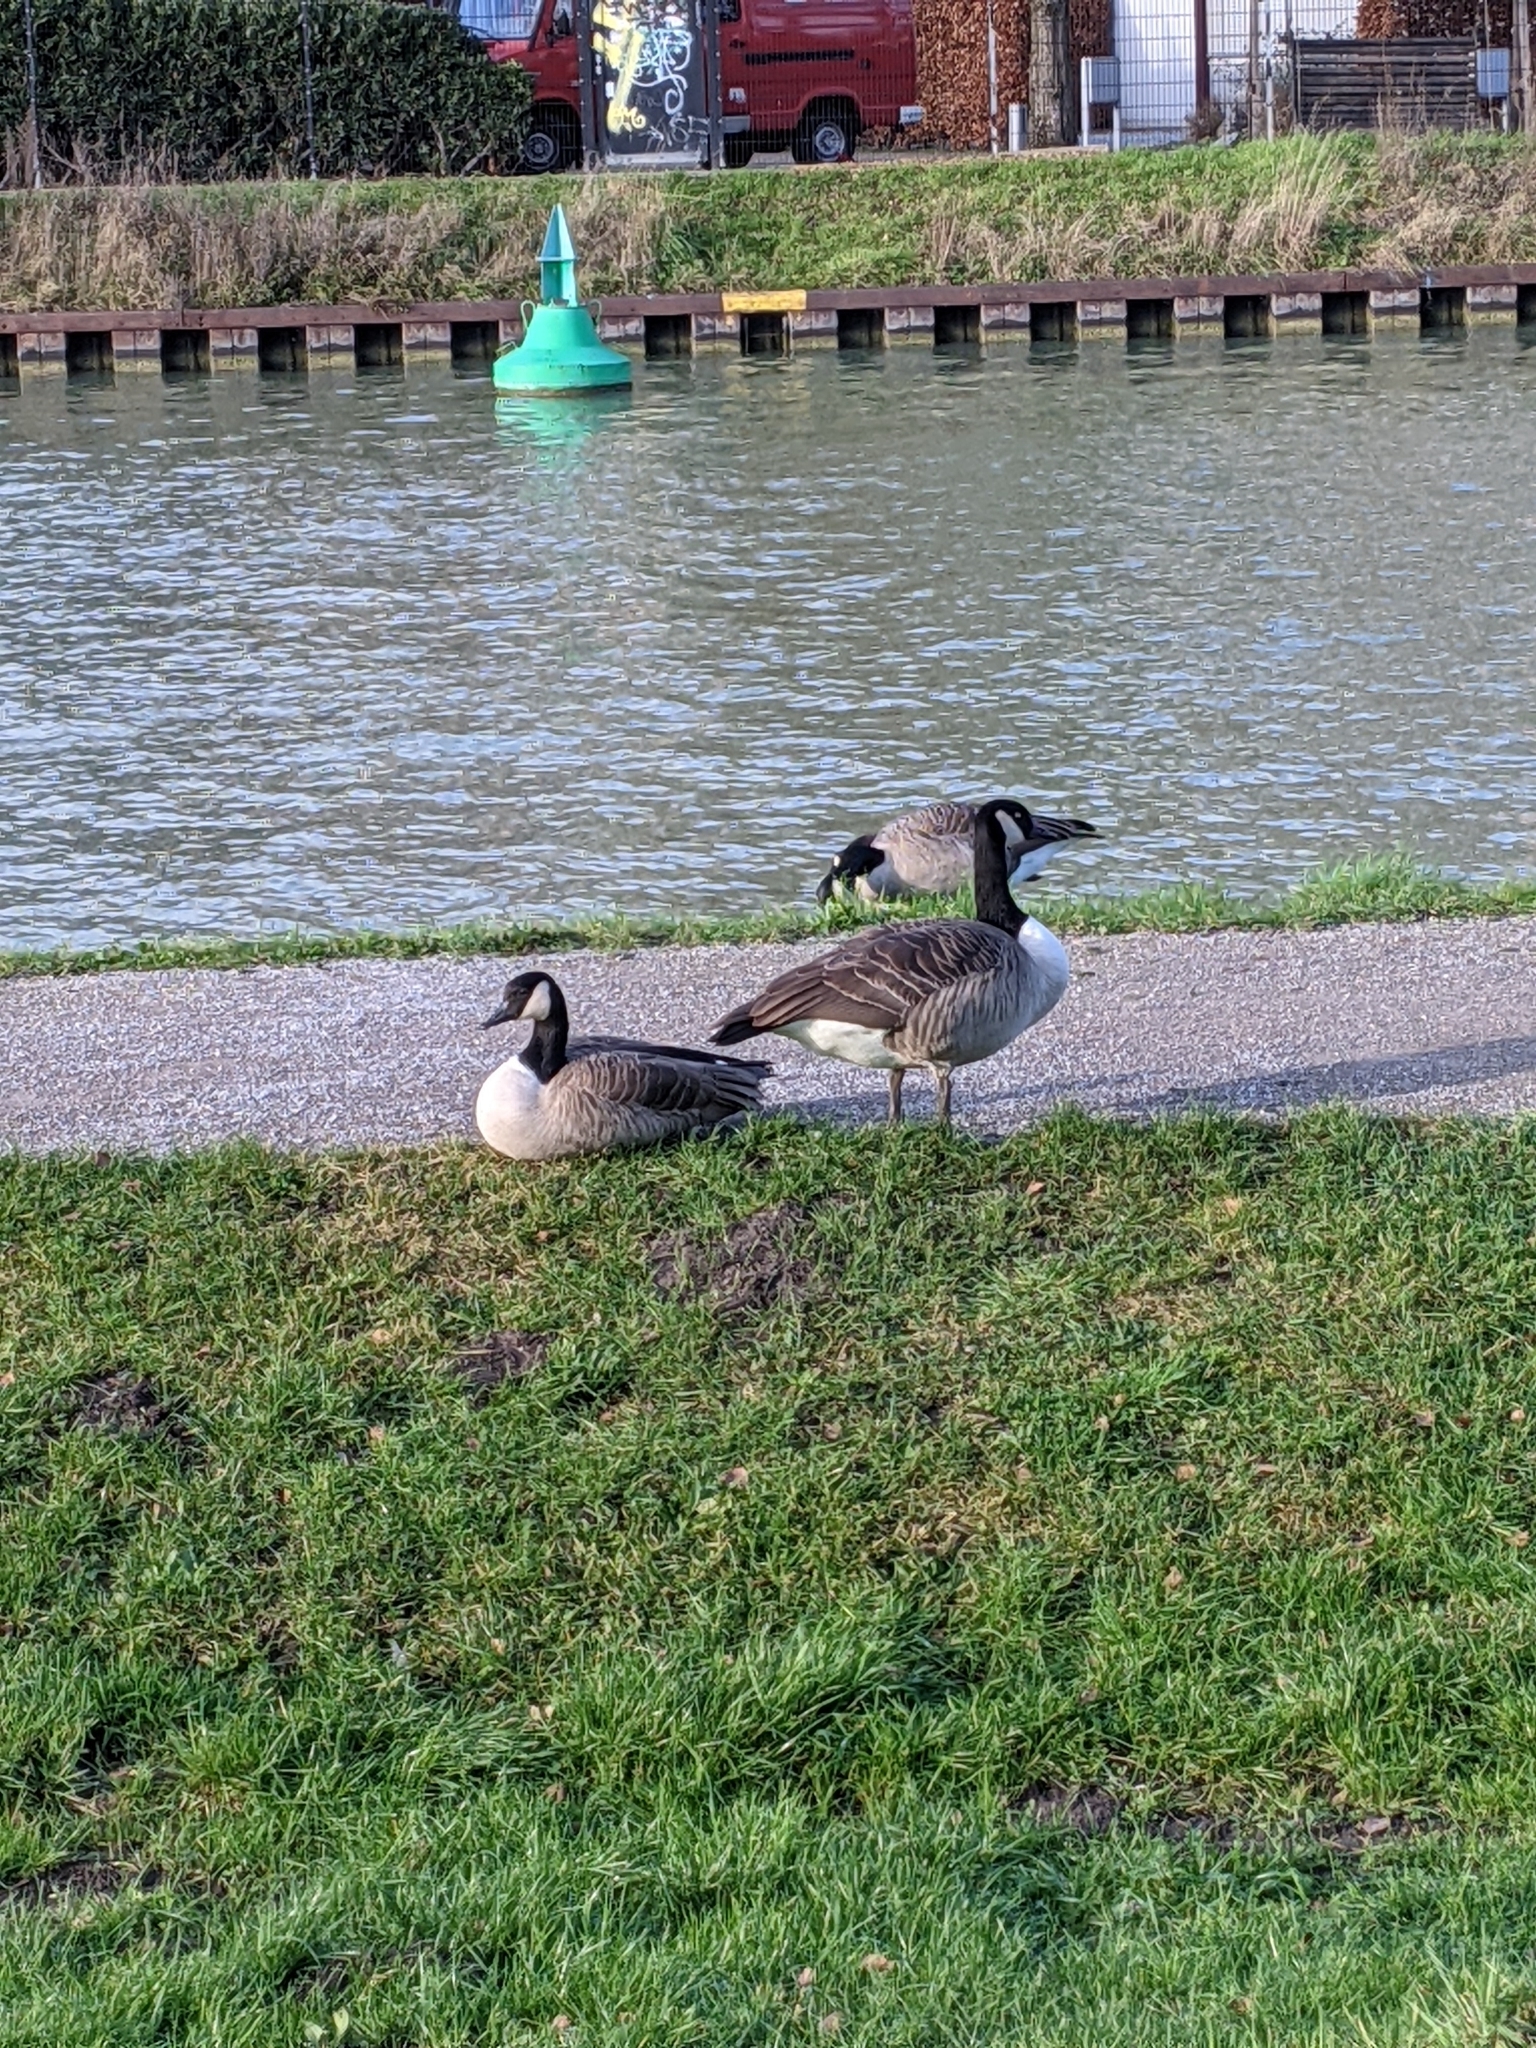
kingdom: Animalia
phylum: Chordata
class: Aves
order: Anseriformes
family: Anatidae
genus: Branta
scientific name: Branta canadensis
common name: Canada goose
